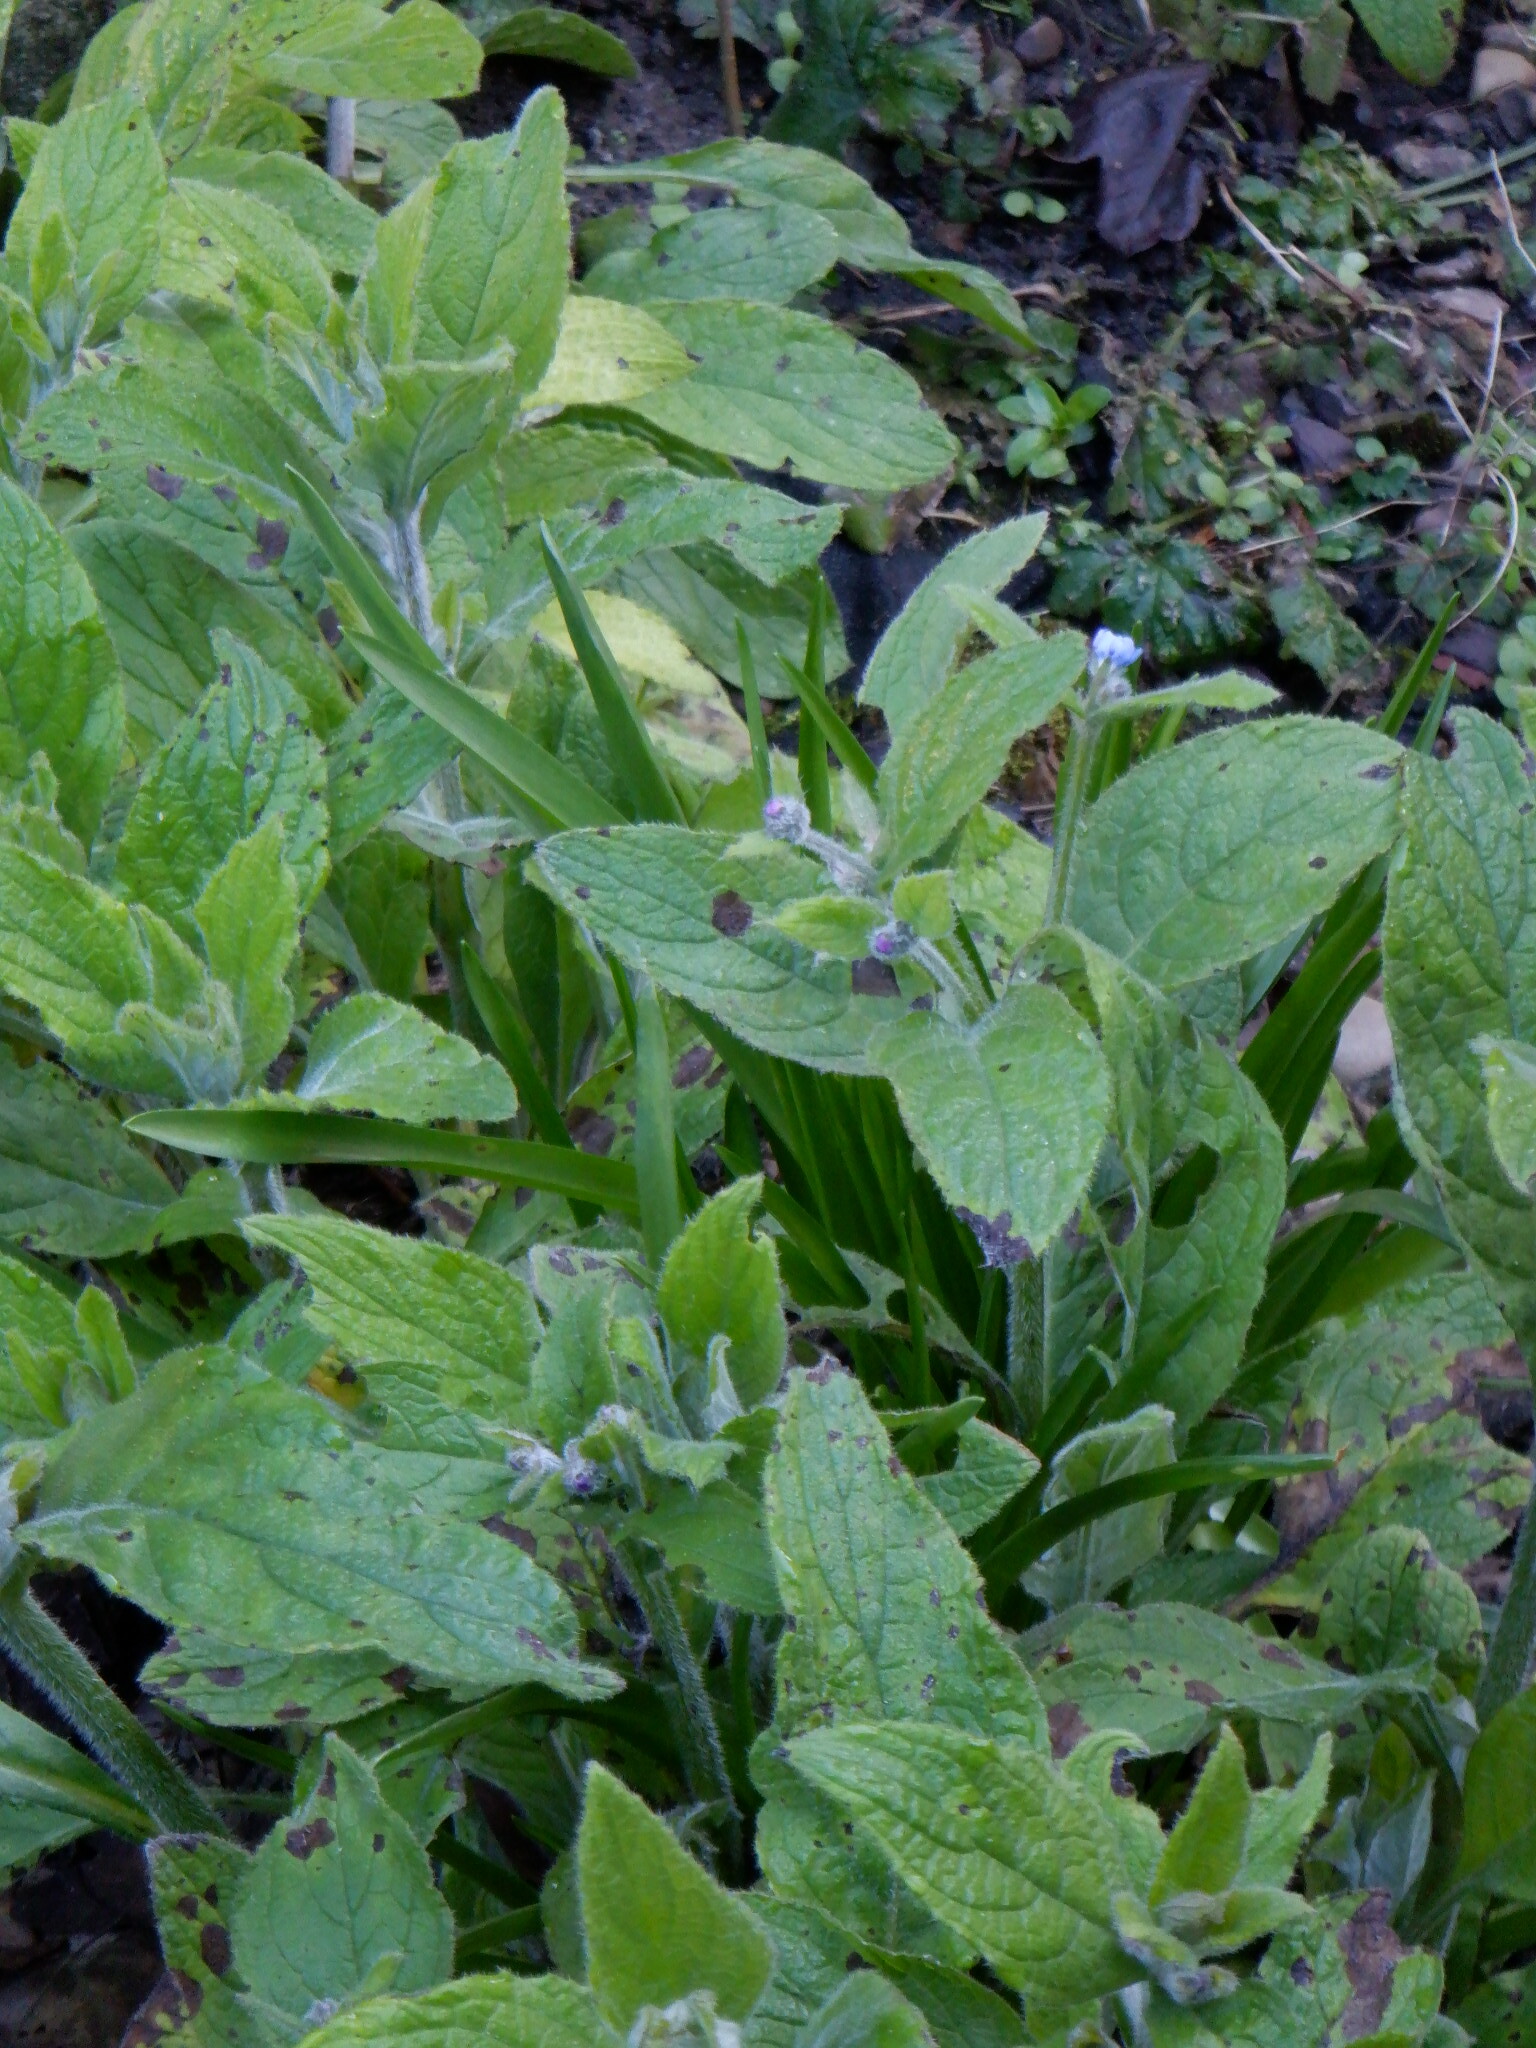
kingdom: Plantae
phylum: Tracheophyta
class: Magnoliopsida
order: Boraginales
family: Boraginaceae
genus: Pentaglottis
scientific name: Pentaglottis sempervirens
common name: Green alkanet
